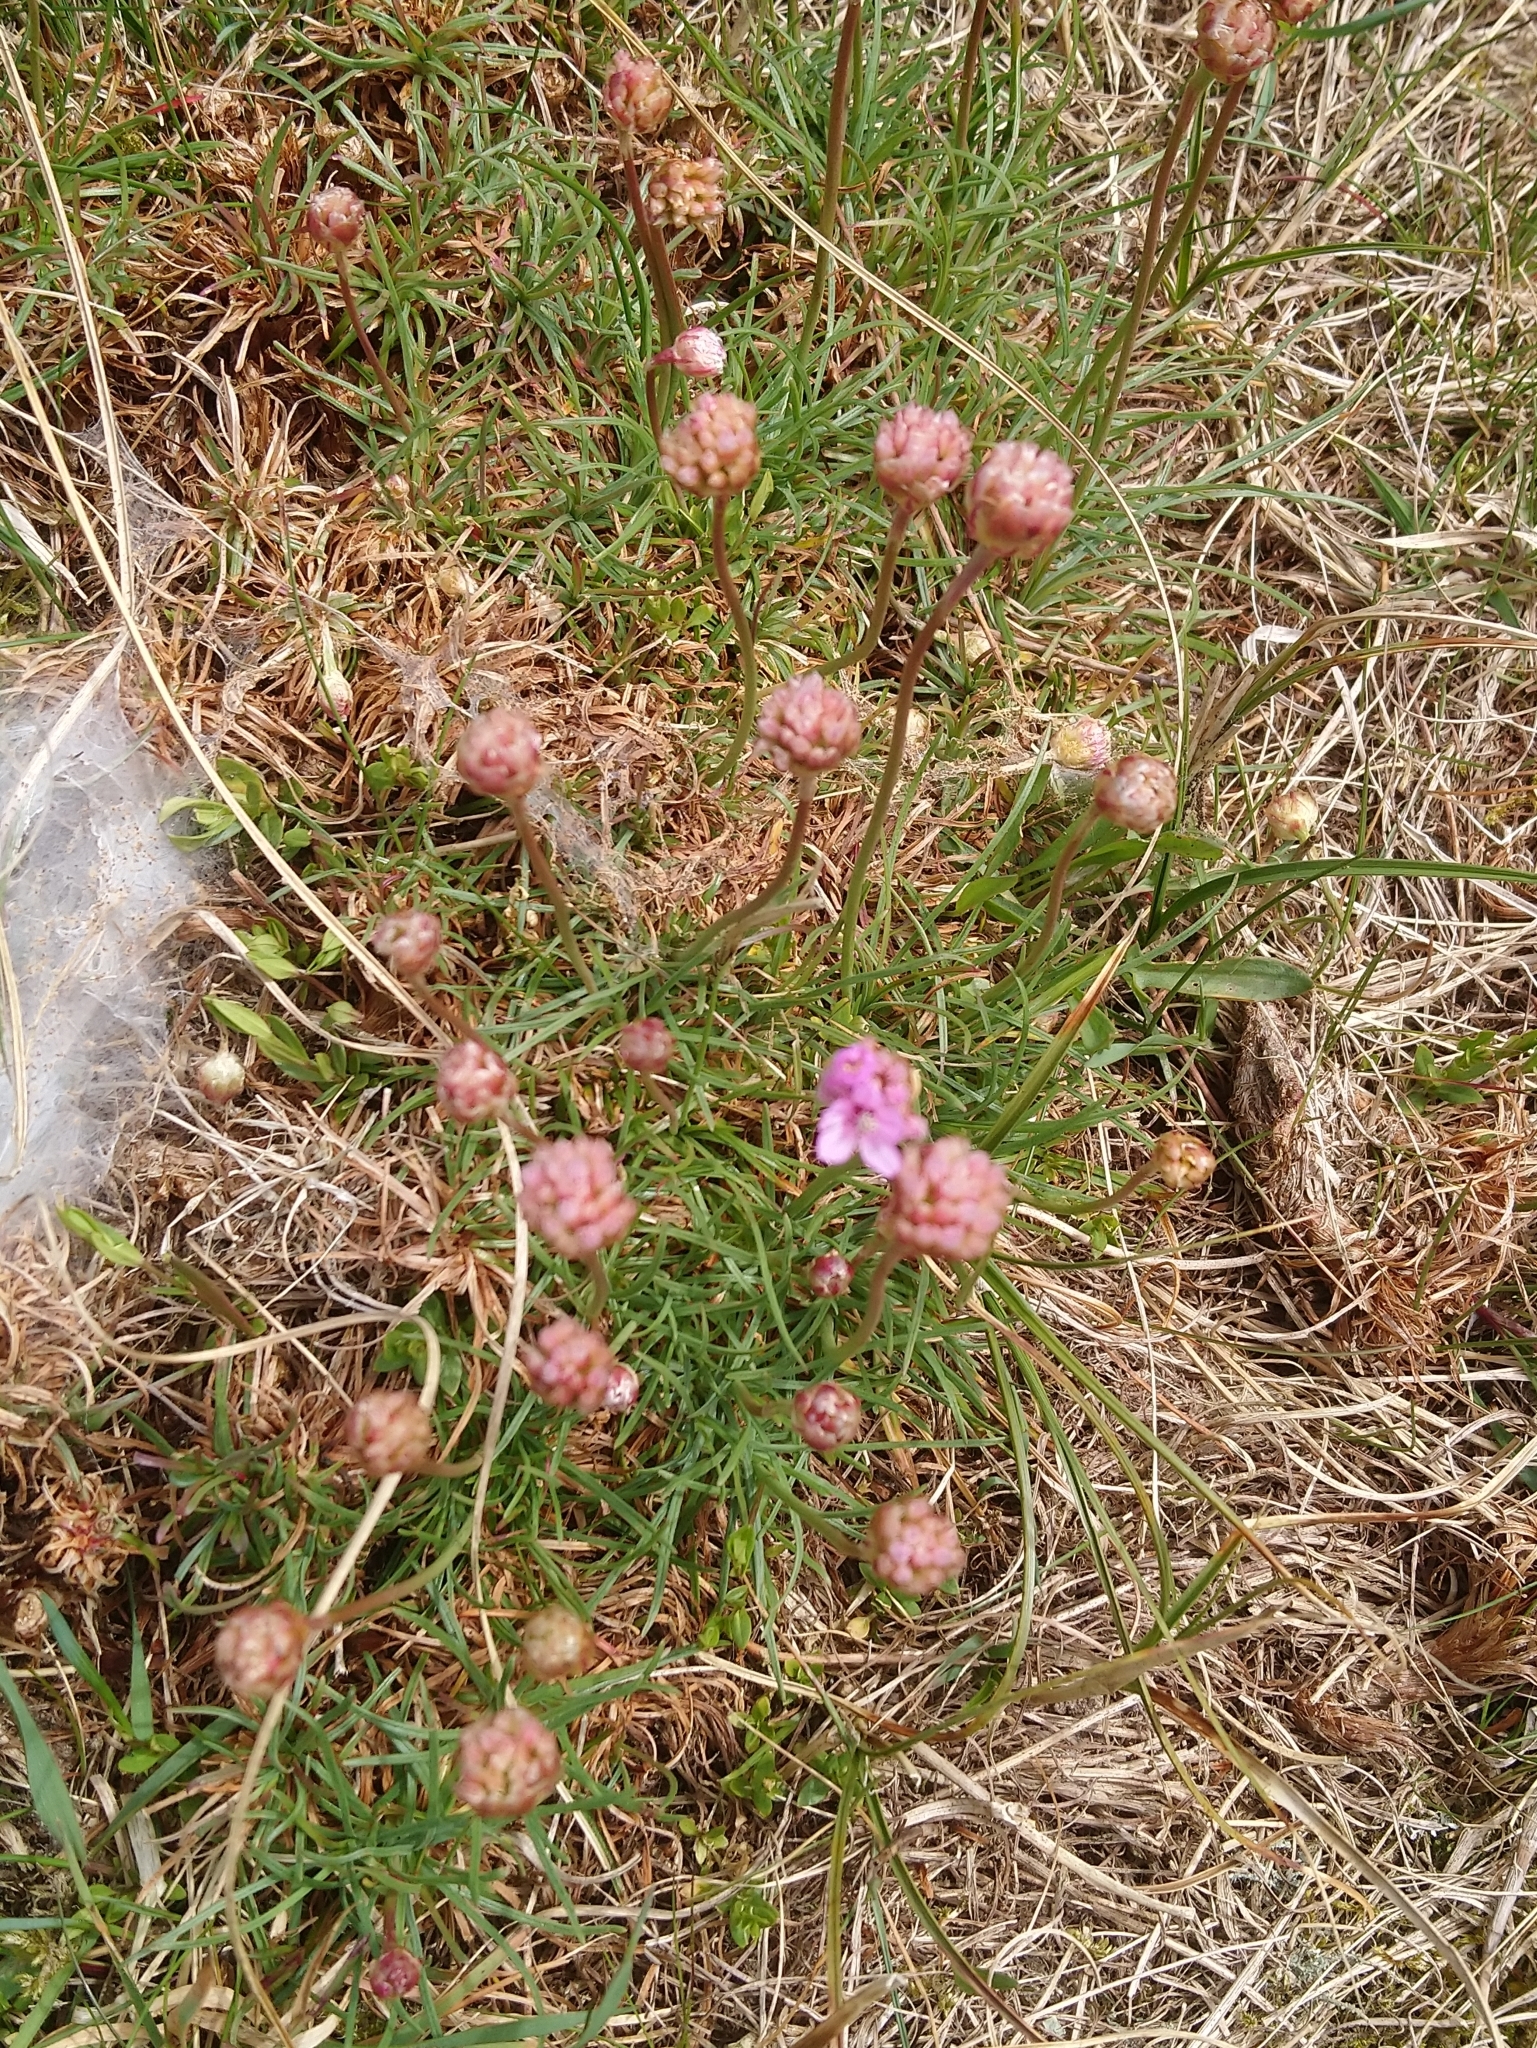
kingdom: Plantae
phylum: Tracheophyta
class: Magnoliopsida
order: Caryophyllales
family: Plumbaginaceae
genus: Armeria
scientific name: Armeria maritima
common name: Thrift
